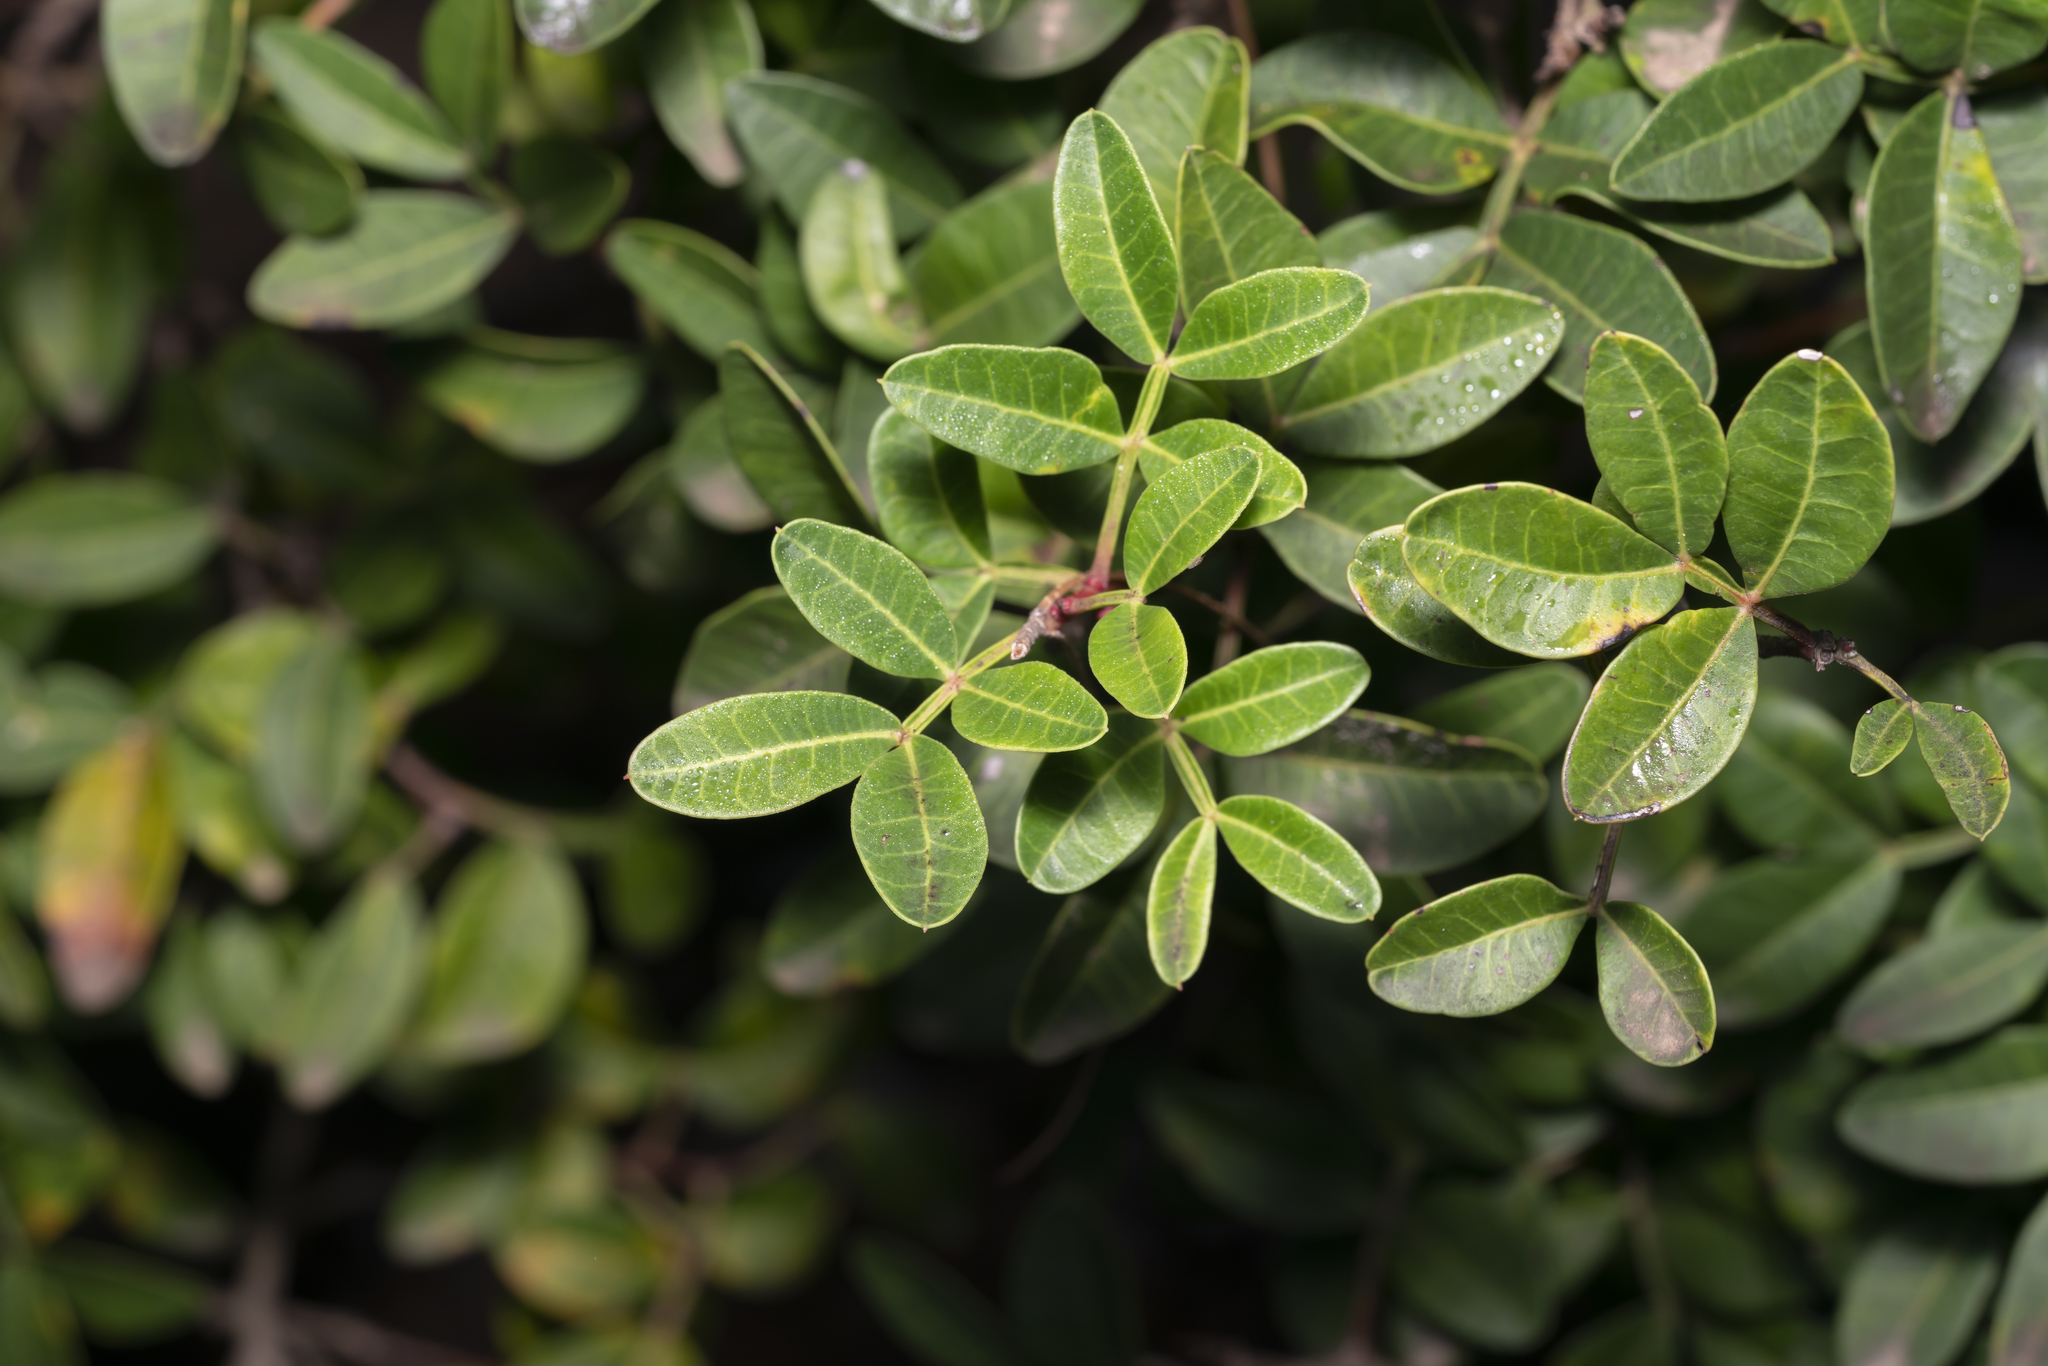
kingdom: Plantae
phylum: Tracheophyta
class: Magnoliopsida
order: Sapindales
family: Anacardiaceae
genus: Pistacia
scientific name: Pistacia lentiscus
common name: Lentisk
